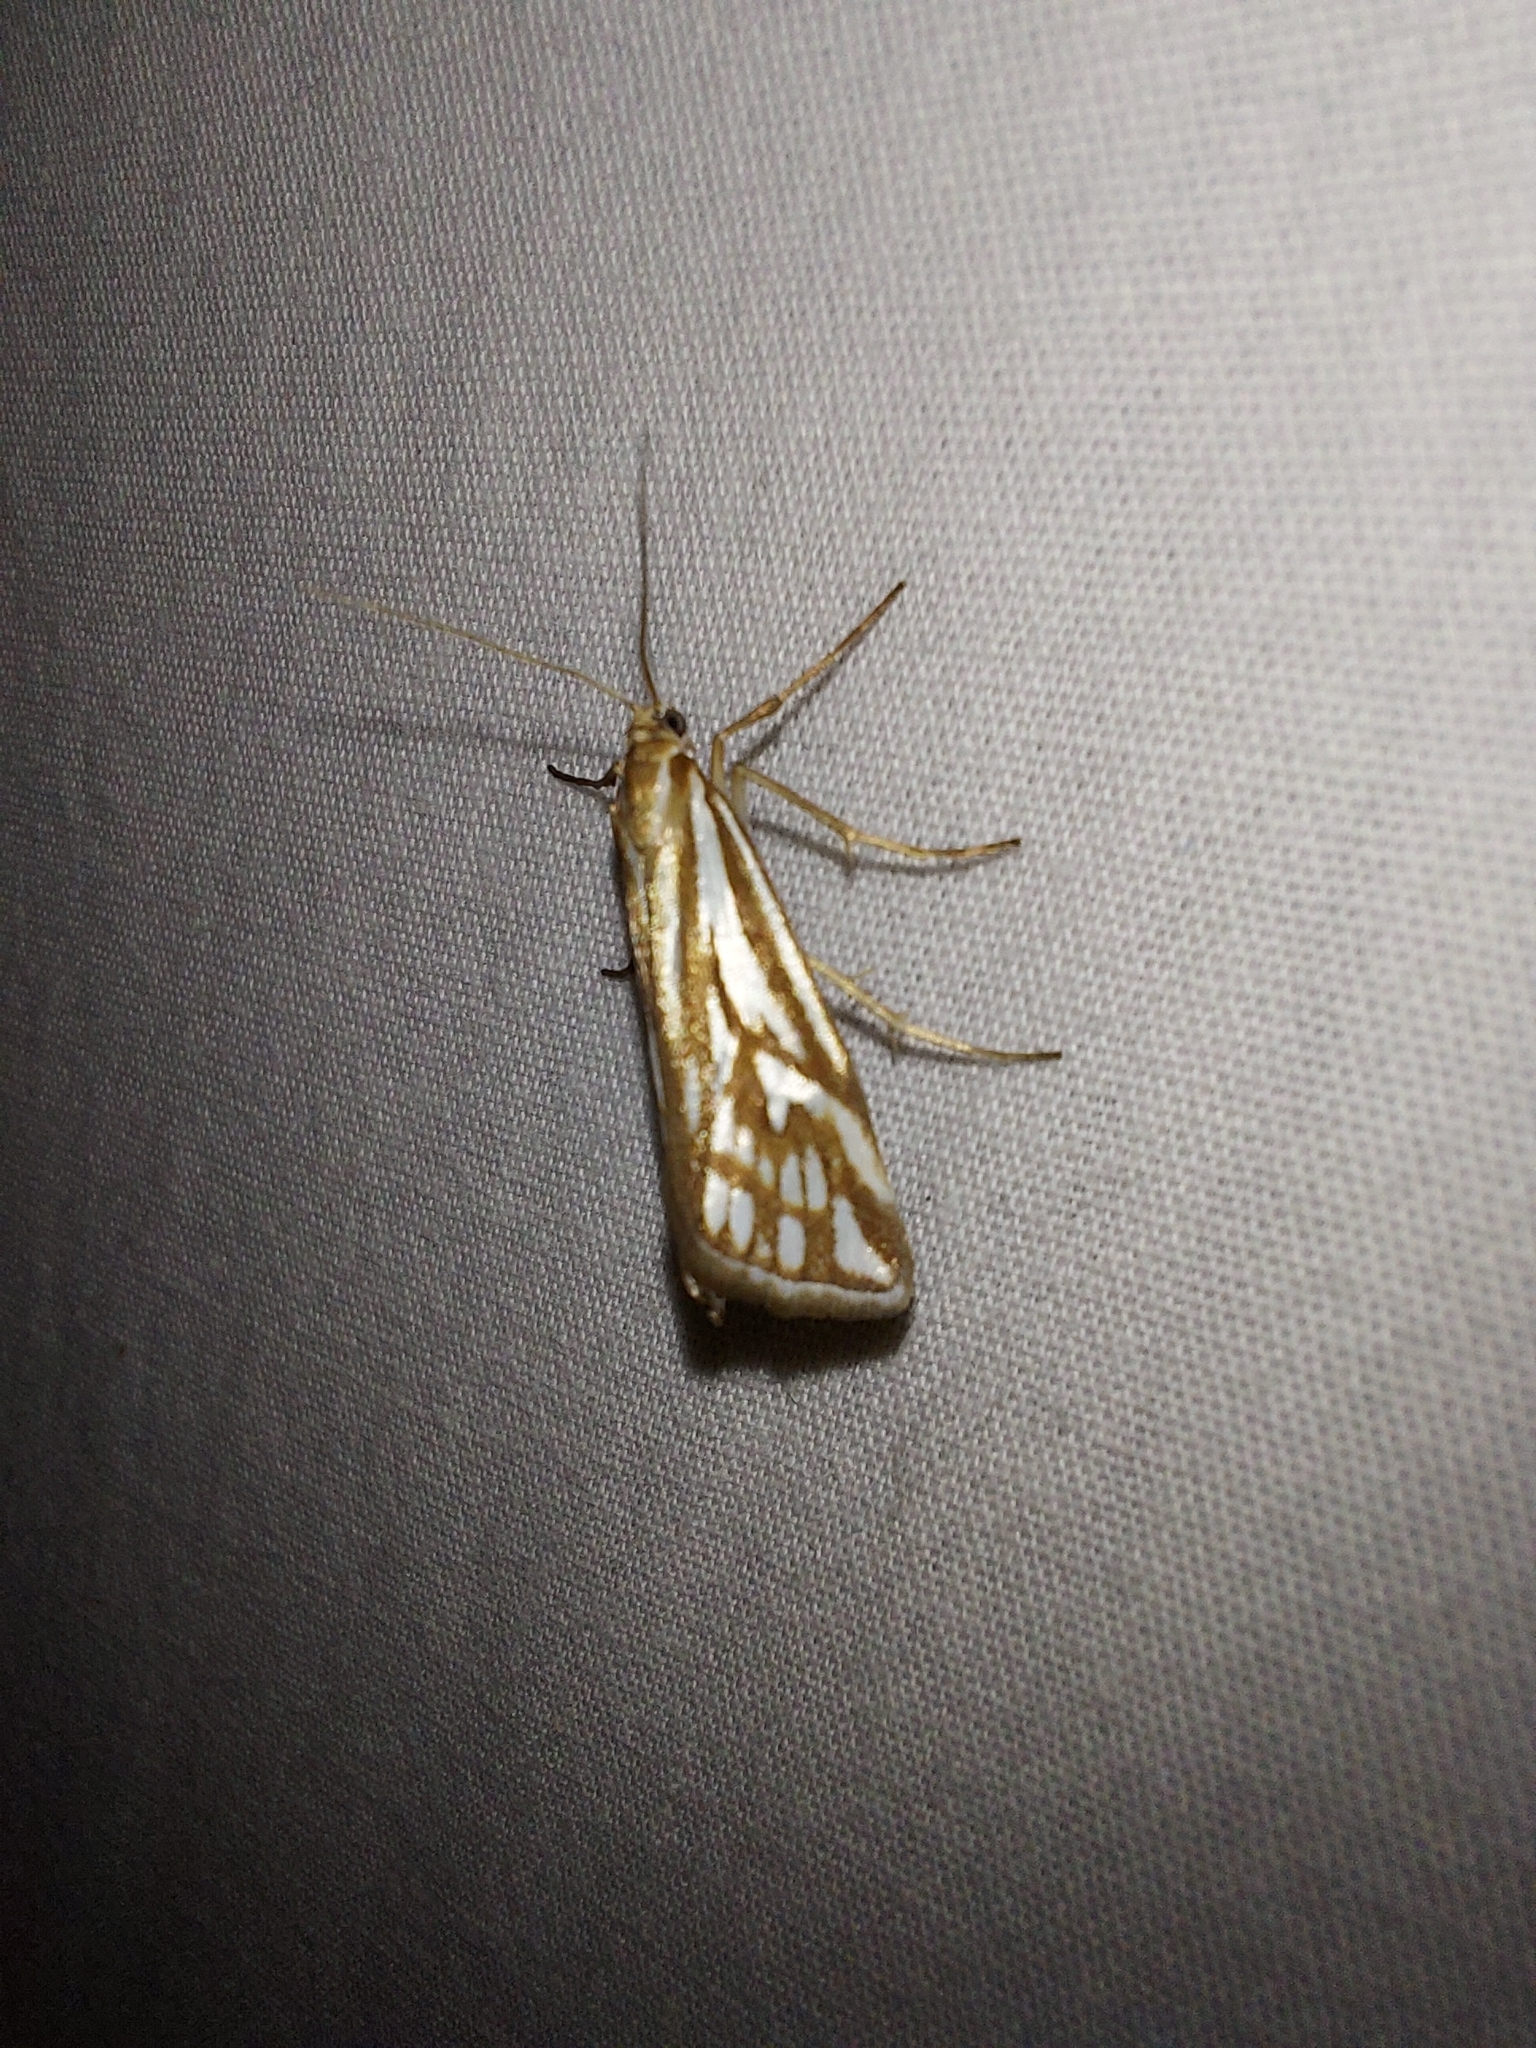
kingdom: Animalia
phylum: Arthropoda
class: Insecta
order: Lepidoptera
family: Crambidae
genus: Hednota
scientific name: Hednota pleniferellus
